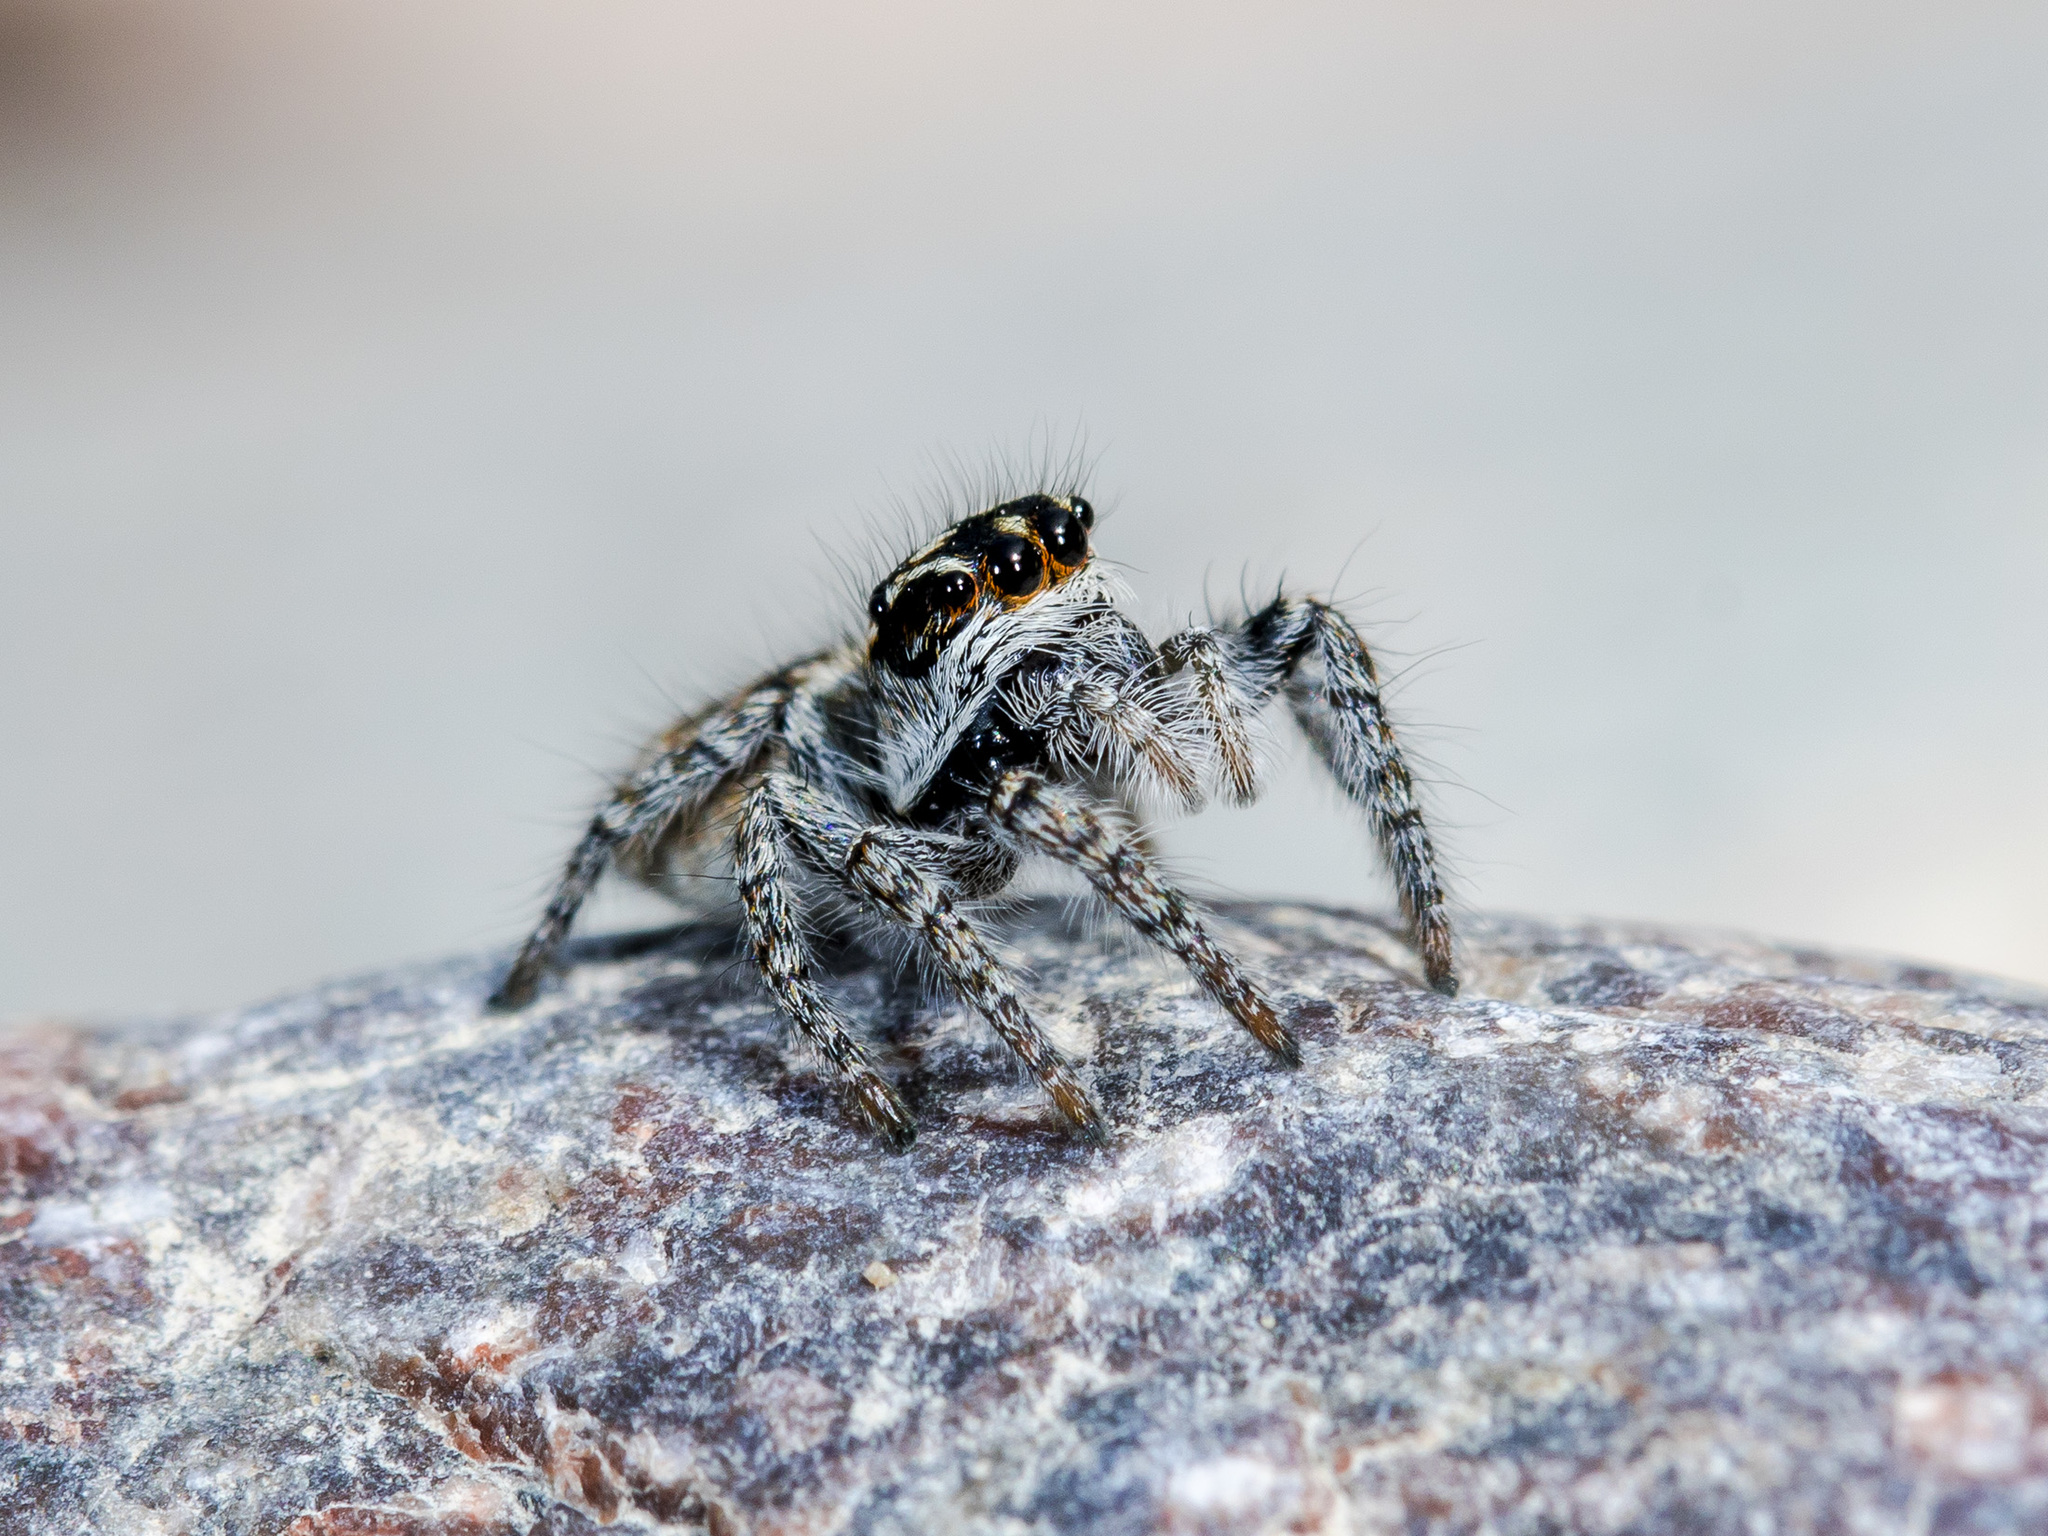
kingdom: Animalia
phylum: Arthropoda
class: Arachnida
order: Araneae
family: Salticidae
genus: Philaeus
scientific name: Philaeus chrysops
